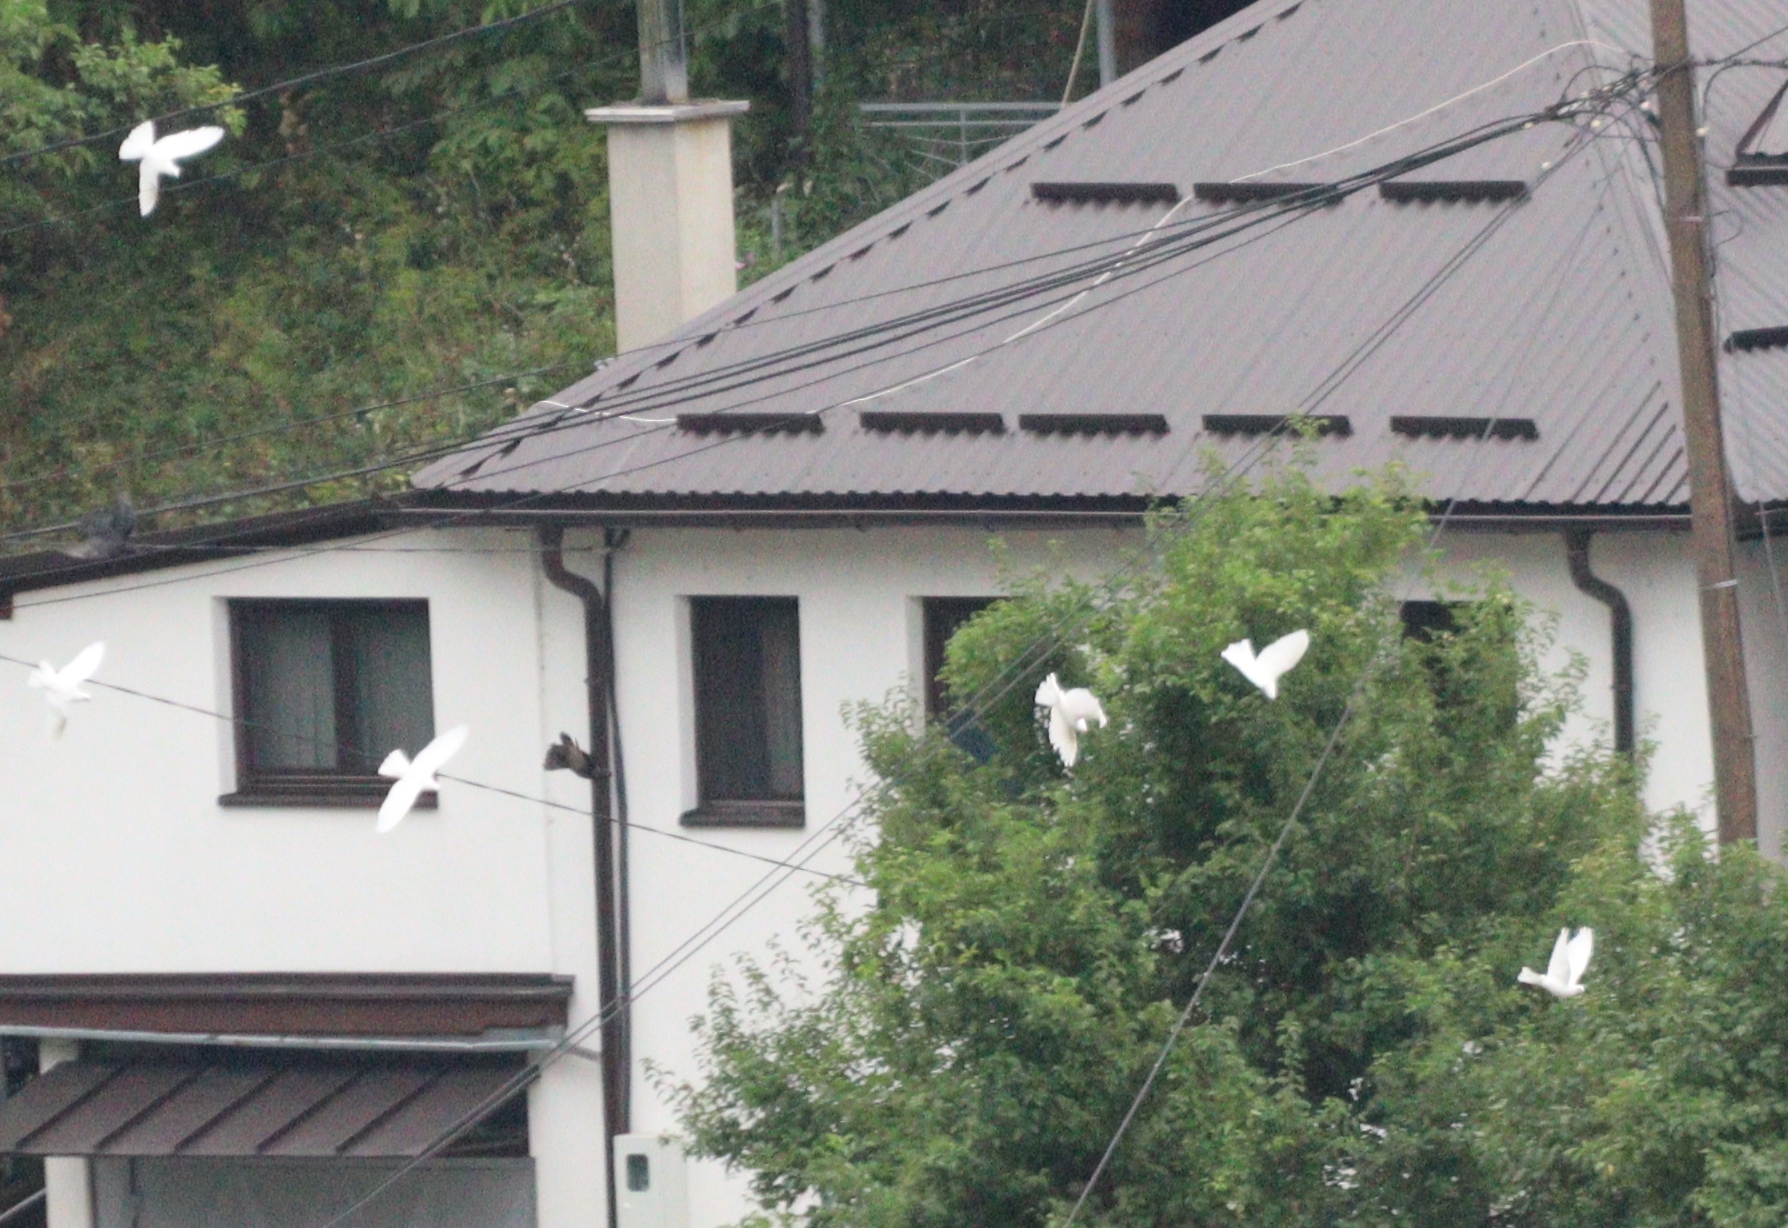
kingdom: Animalia
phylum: Chordata
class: Aves
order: Columbiformes
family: Columbidae
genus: Columba
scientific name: Columba livia
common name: Rock pigeon
